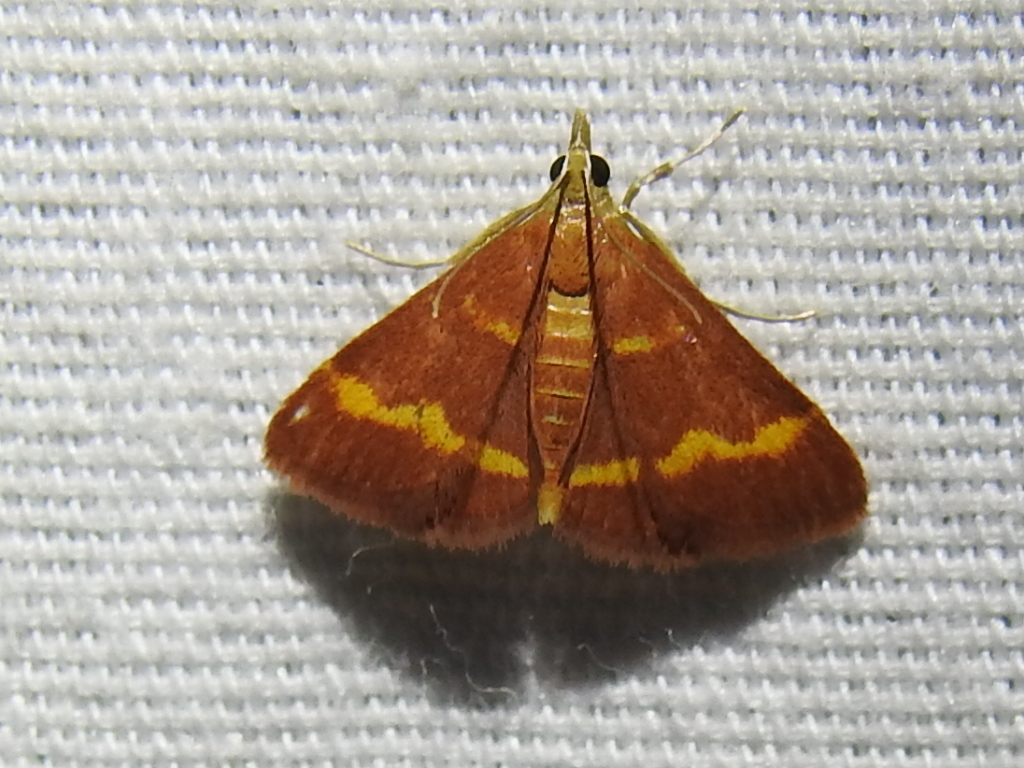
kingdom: Animalia
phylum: Arthropoda
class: Insecta
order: Lepidoptera
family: Crambidae
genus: Pyrausta
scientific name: Pyrausta pseuderosnealis
